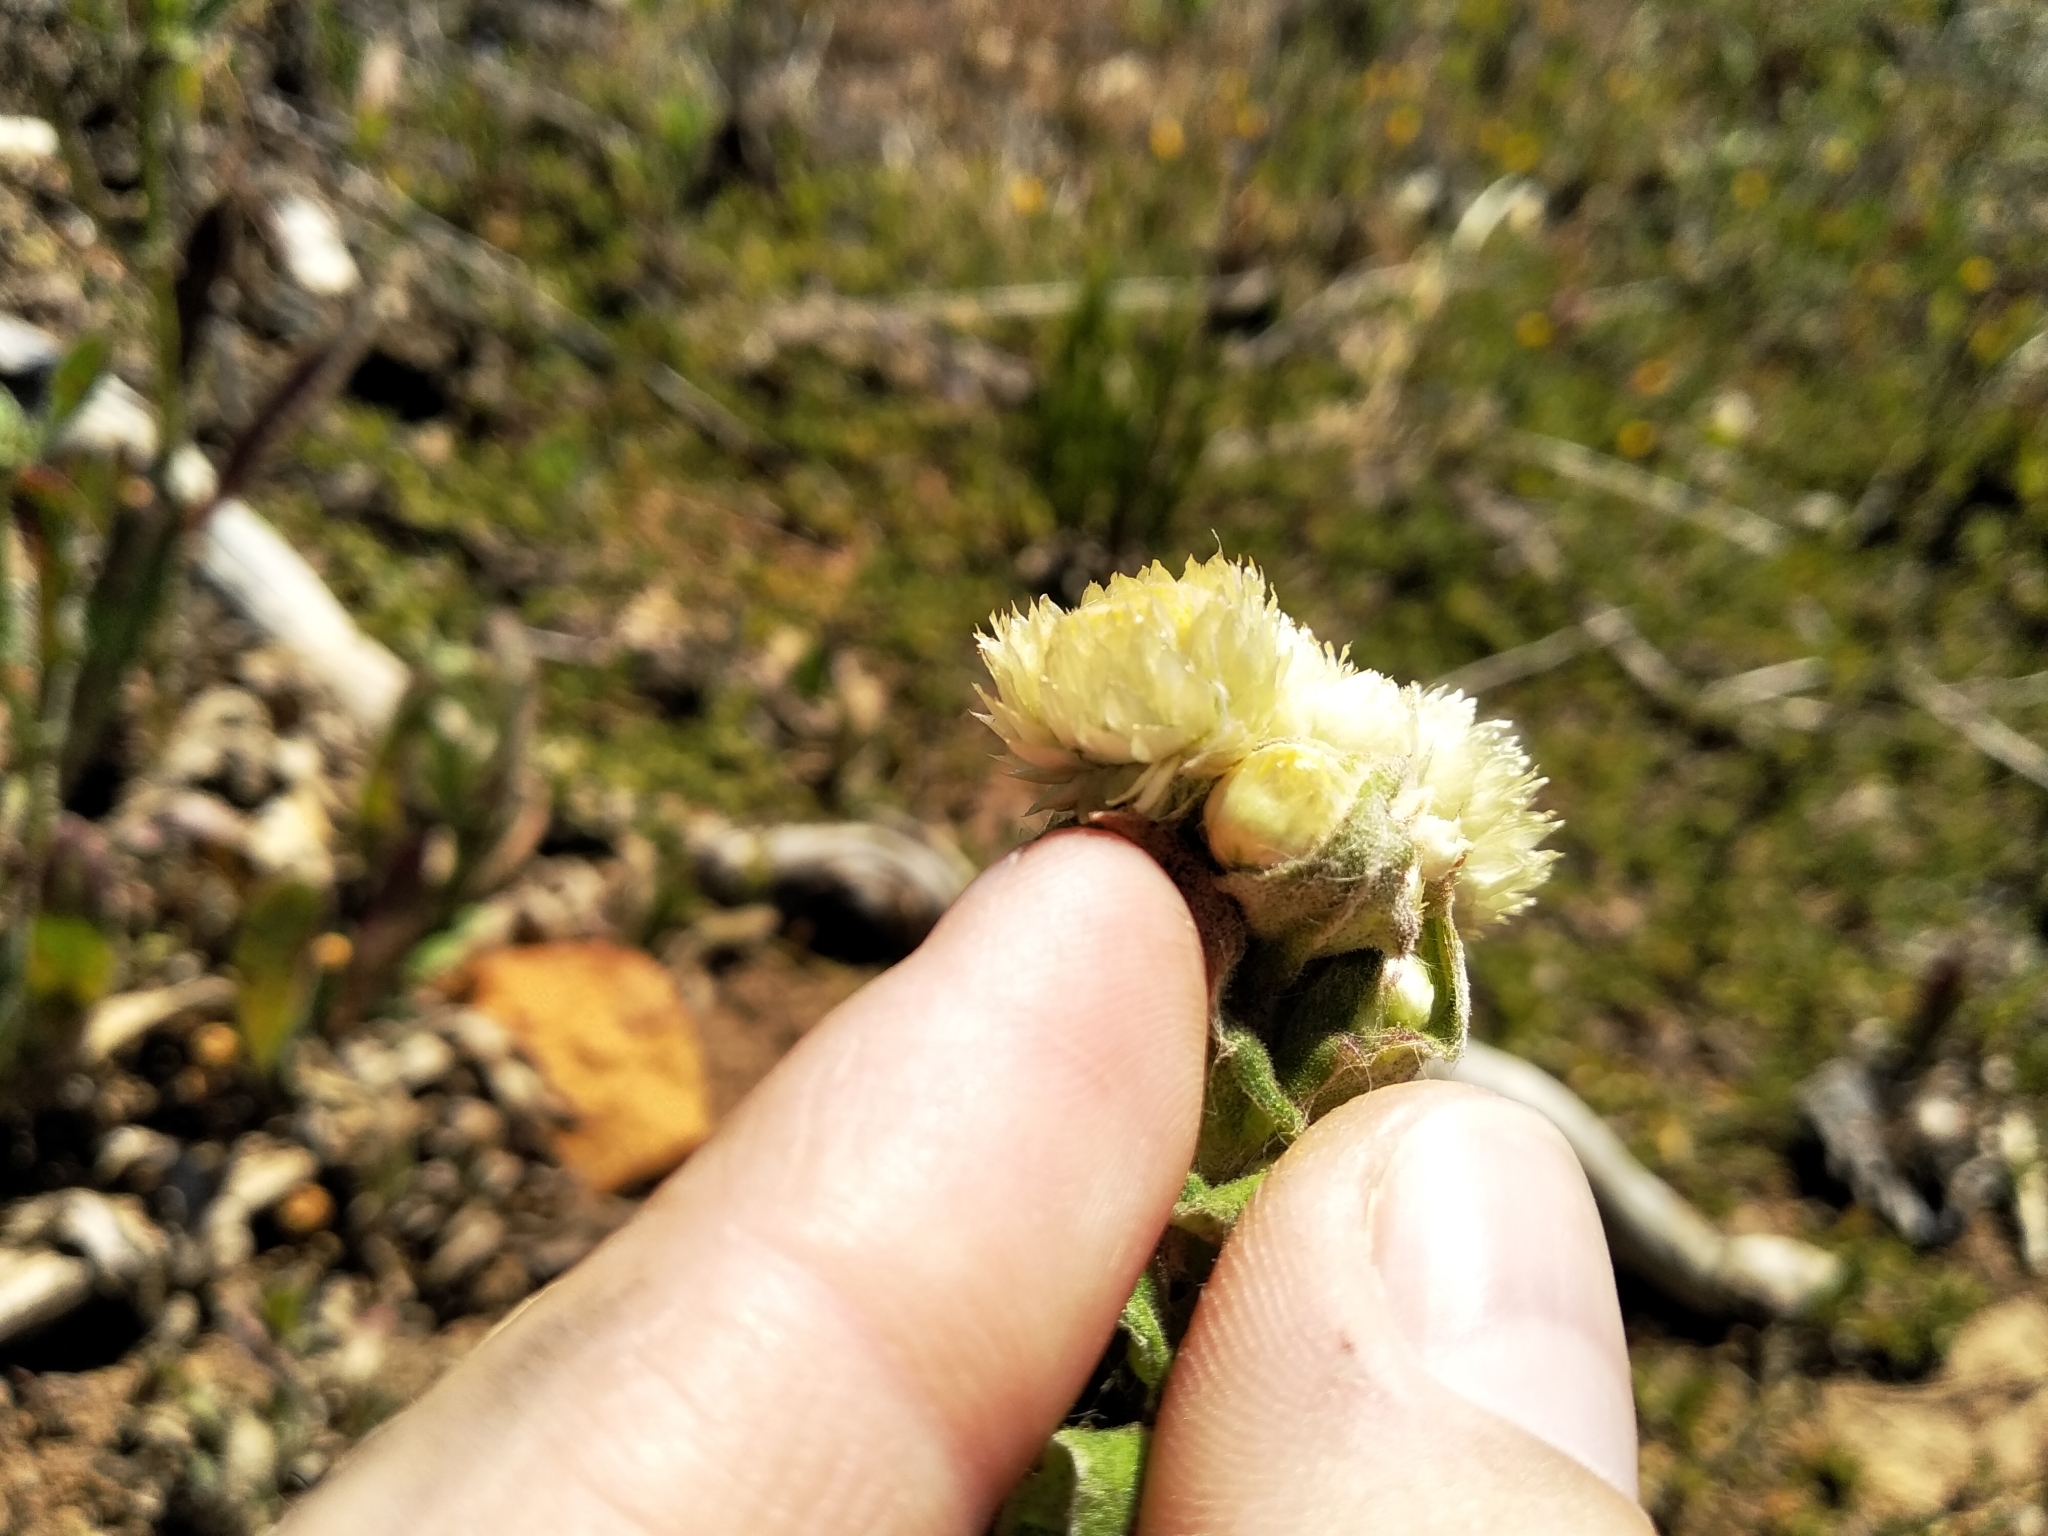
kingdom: Plantae
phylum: Tracheophyta
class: Magnoliopsida
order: Asterales
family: Asteraceae
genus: Helichrysum
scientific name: Helichrysum foetidum
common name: Stinking everlasting
